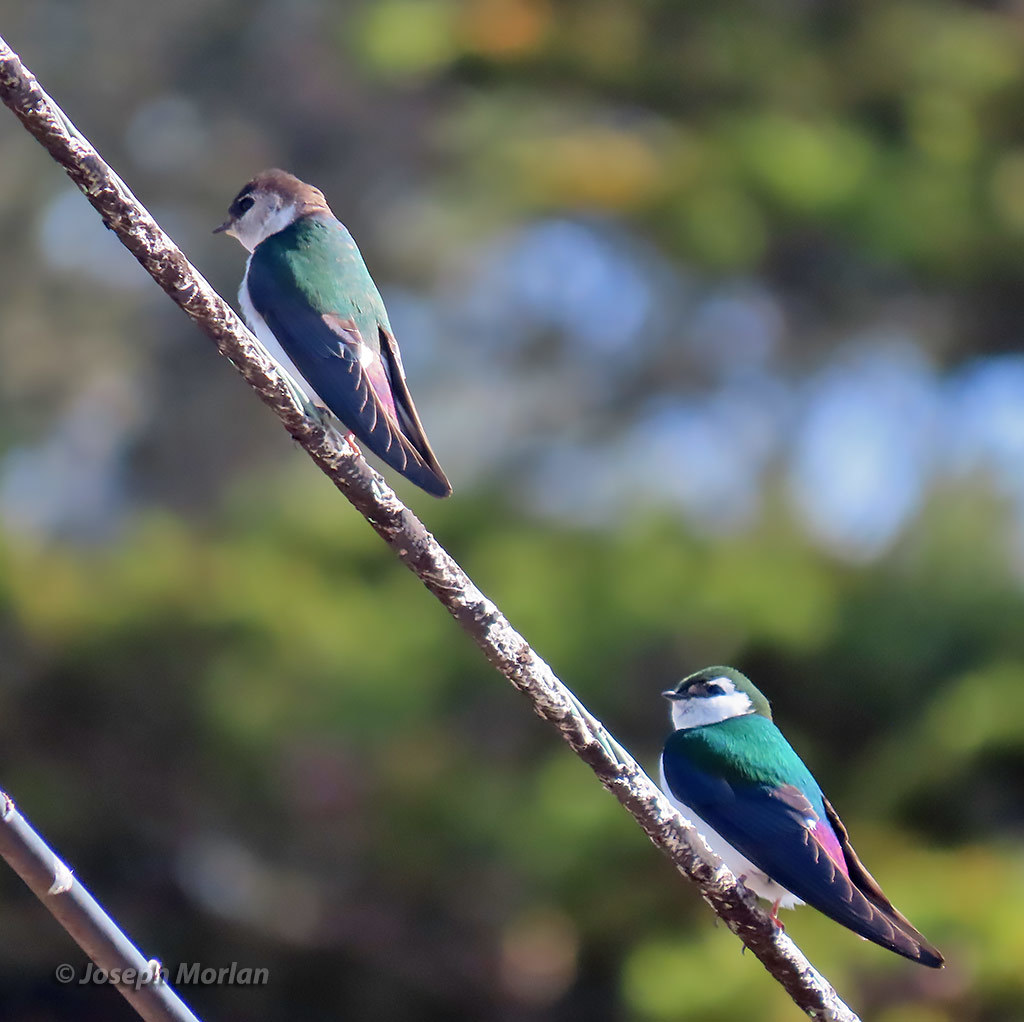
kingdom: Animalia
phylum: Chordata
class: Aves
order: Passeriformes
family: Hirundinidae
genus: Tachycineta
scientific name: Tachycineta thalassina
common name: Violet-green swallow
